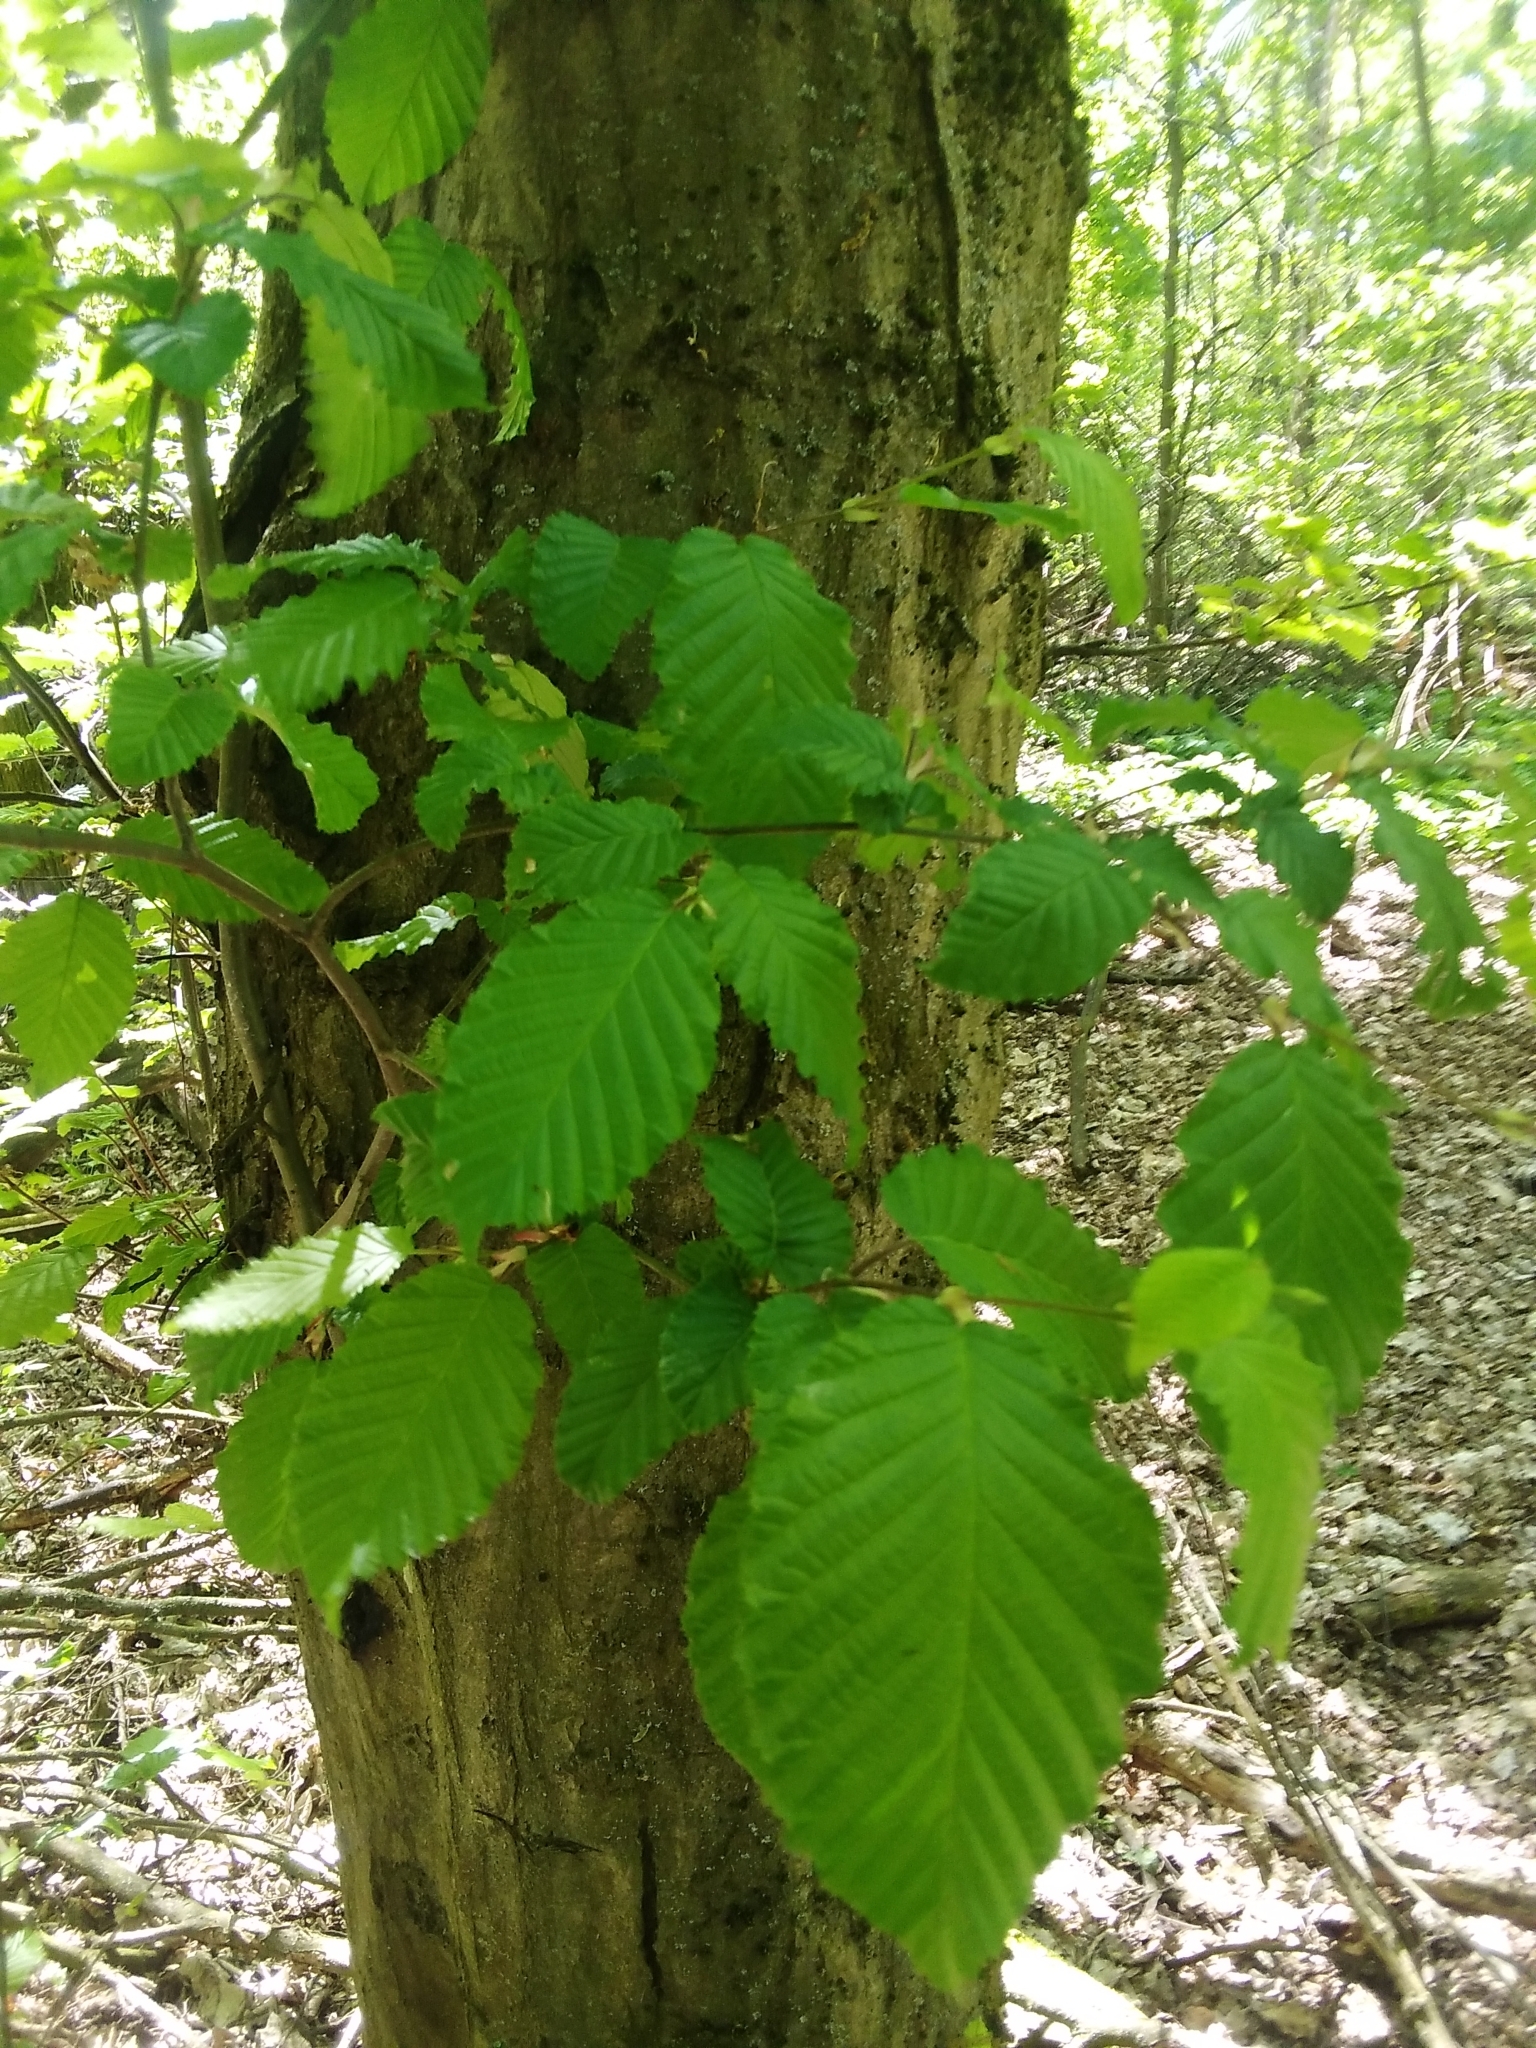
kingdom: Plantae
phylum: Tracheophyta
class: Magnoliopsida
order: Fagales
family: Betulaceae
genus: Carpinus
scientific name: Carpinus betulus
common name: Hornbeam
